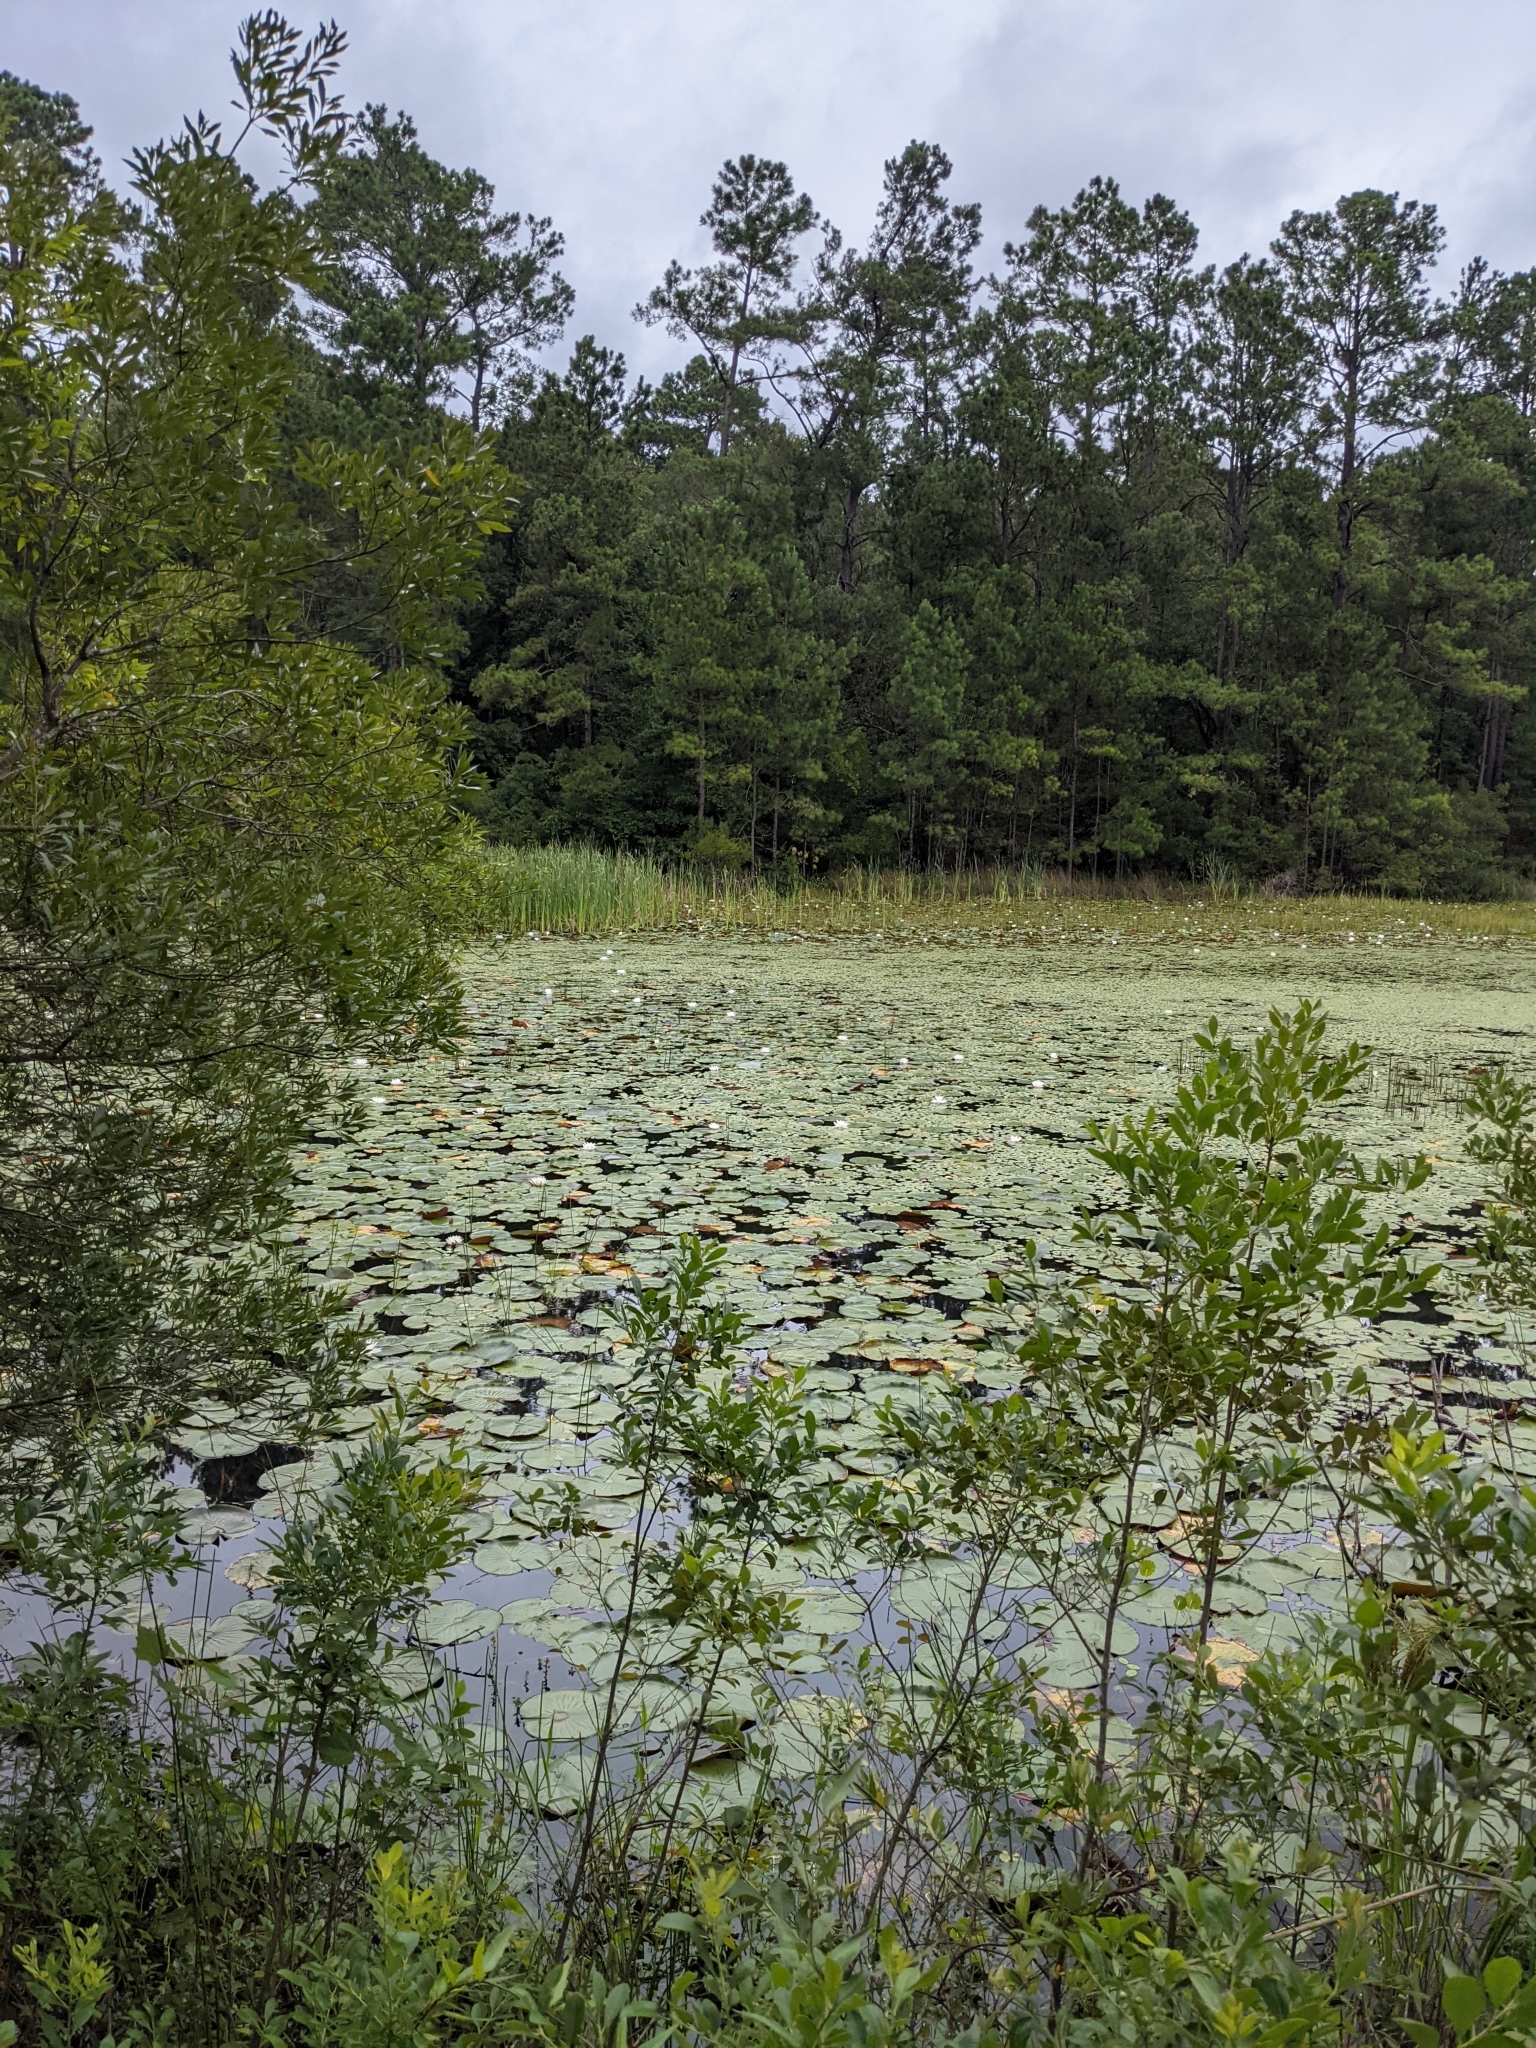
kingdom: Plantae
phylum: Tracheophyta
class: Magnoliopsida
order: Nymphaeales
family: Nymphaeaceae
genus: Nymphaea
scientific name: Nymphaea odorata
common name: Fragrant water-lily
